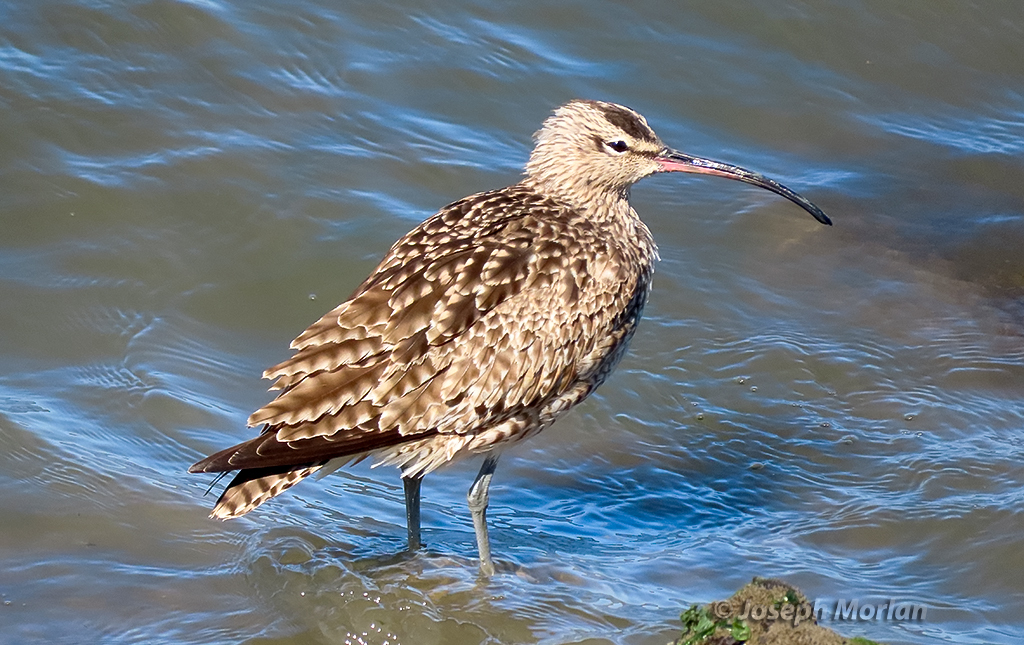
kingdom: Animalia
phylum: Chordata
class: Aves
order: Charadriiformes
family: Scolopacidae
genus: Numenius
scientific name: Numenius phaeopus
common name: Whimbrel
